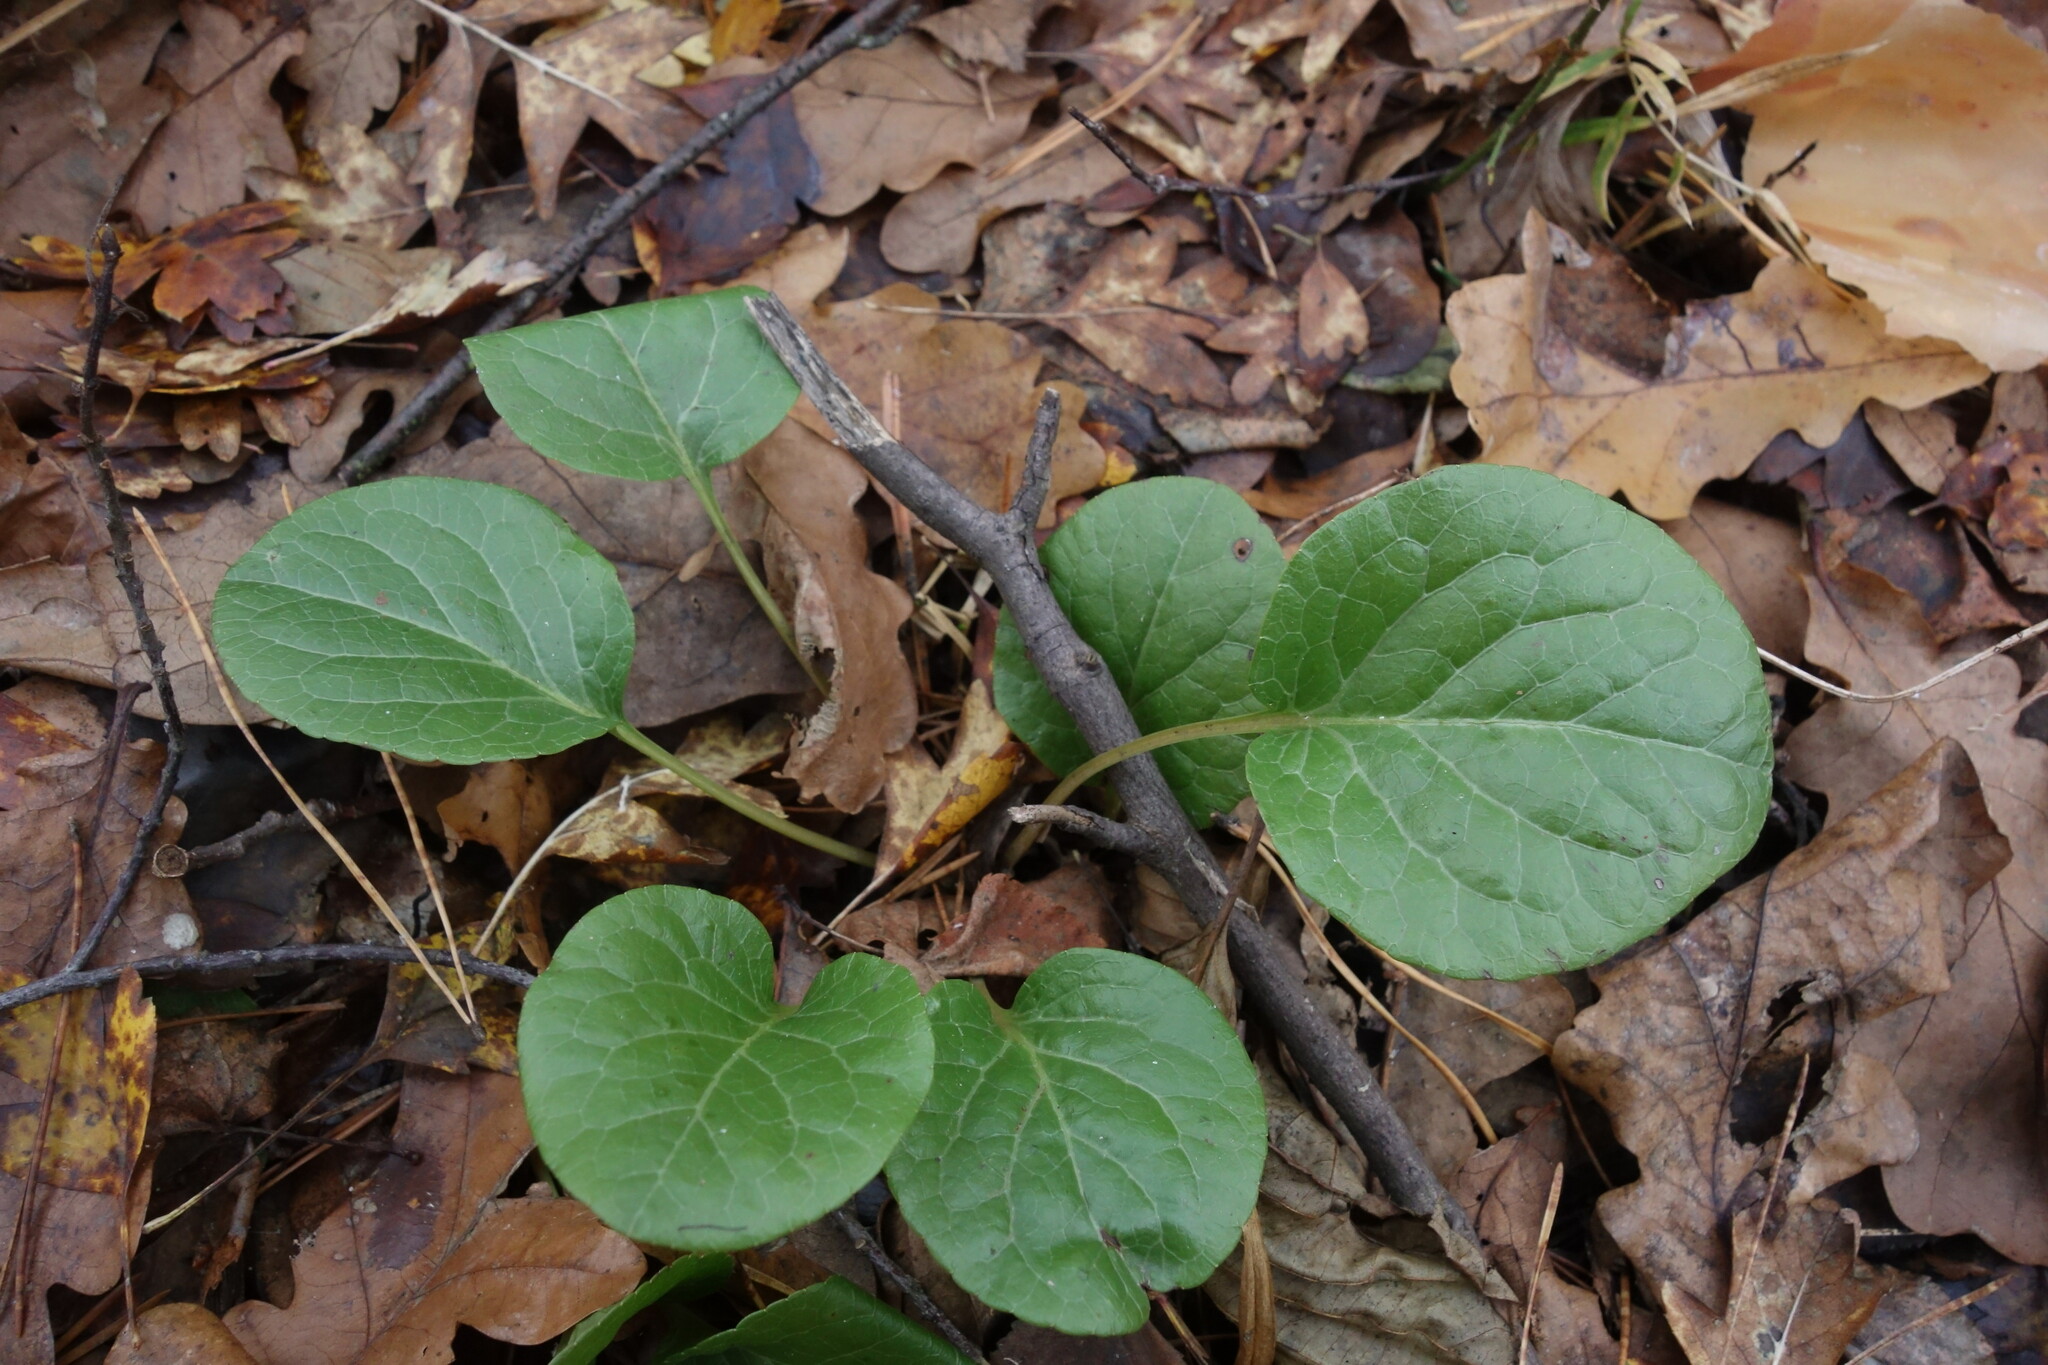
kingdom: Plantae
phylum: Tracheophyta
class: Magnoliopsida
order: Ericales
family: Ericaceae
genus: Pyrola
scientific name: Pyrola rotundifolia
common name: Round-leaved wintergreen
